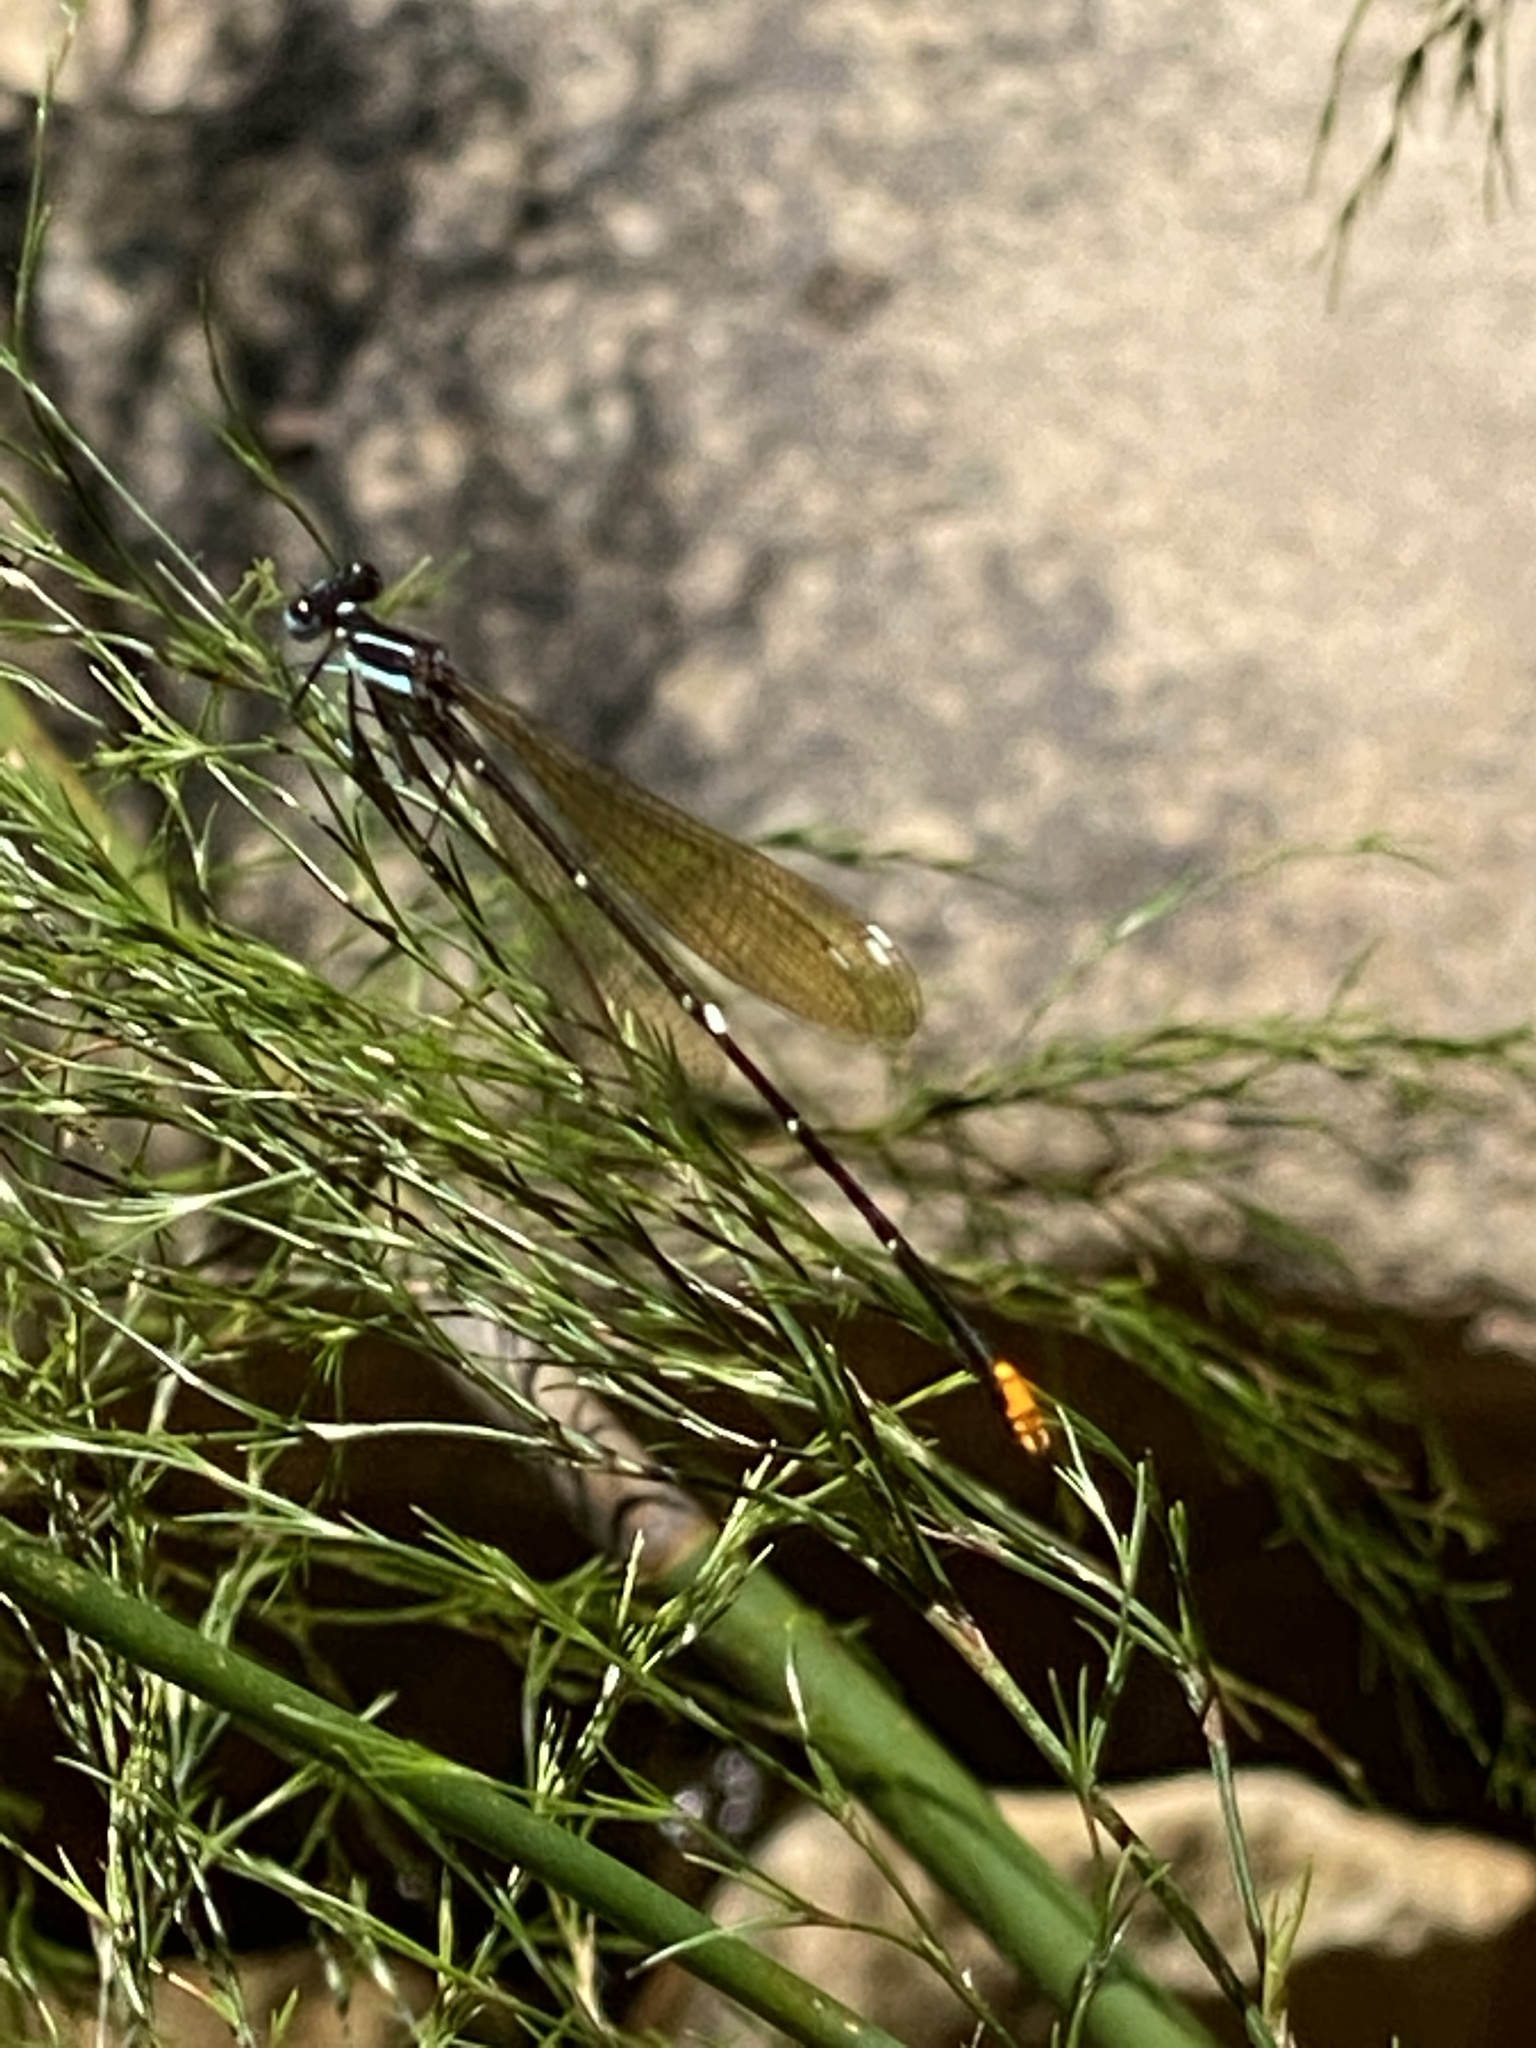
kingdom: Animalia
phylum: Arthropoda
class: Insecta
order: Odonata
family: Platycnemididae
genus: Allocnemis
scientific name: Allocnemis leucosticta
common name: Goldtail
